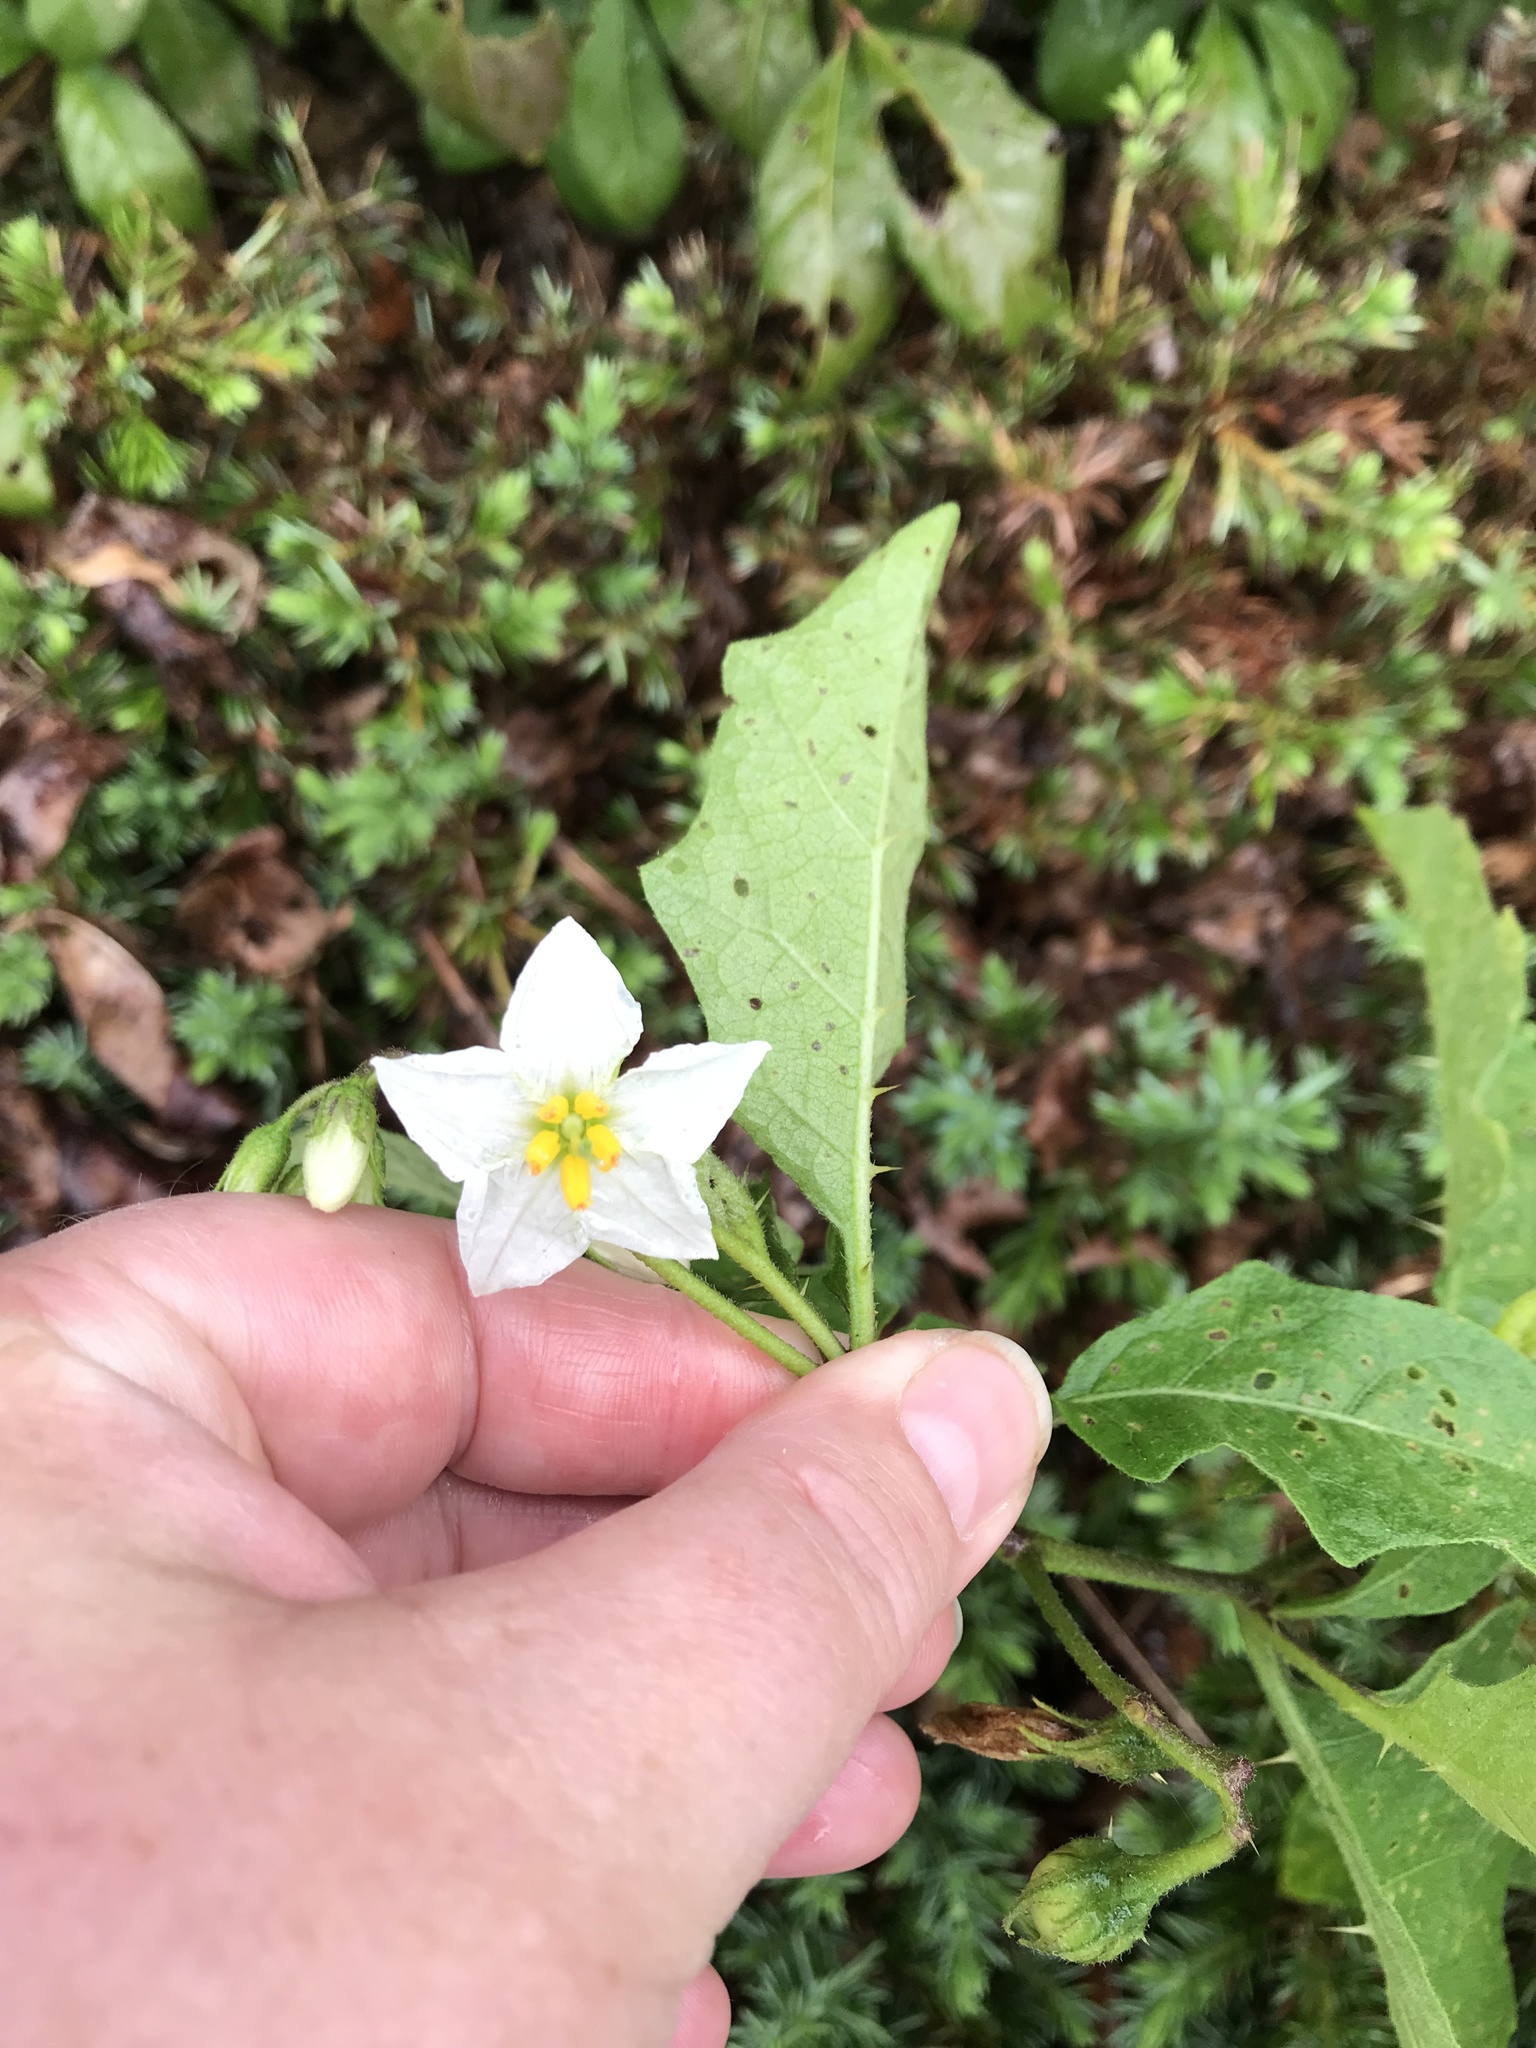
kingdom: Plantae
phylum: Tracheophyta
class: Magnoliopsida
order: Solanales
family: Solanaceae
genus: Solanum
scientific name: Solanum carolinense
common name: Horse-nettle
